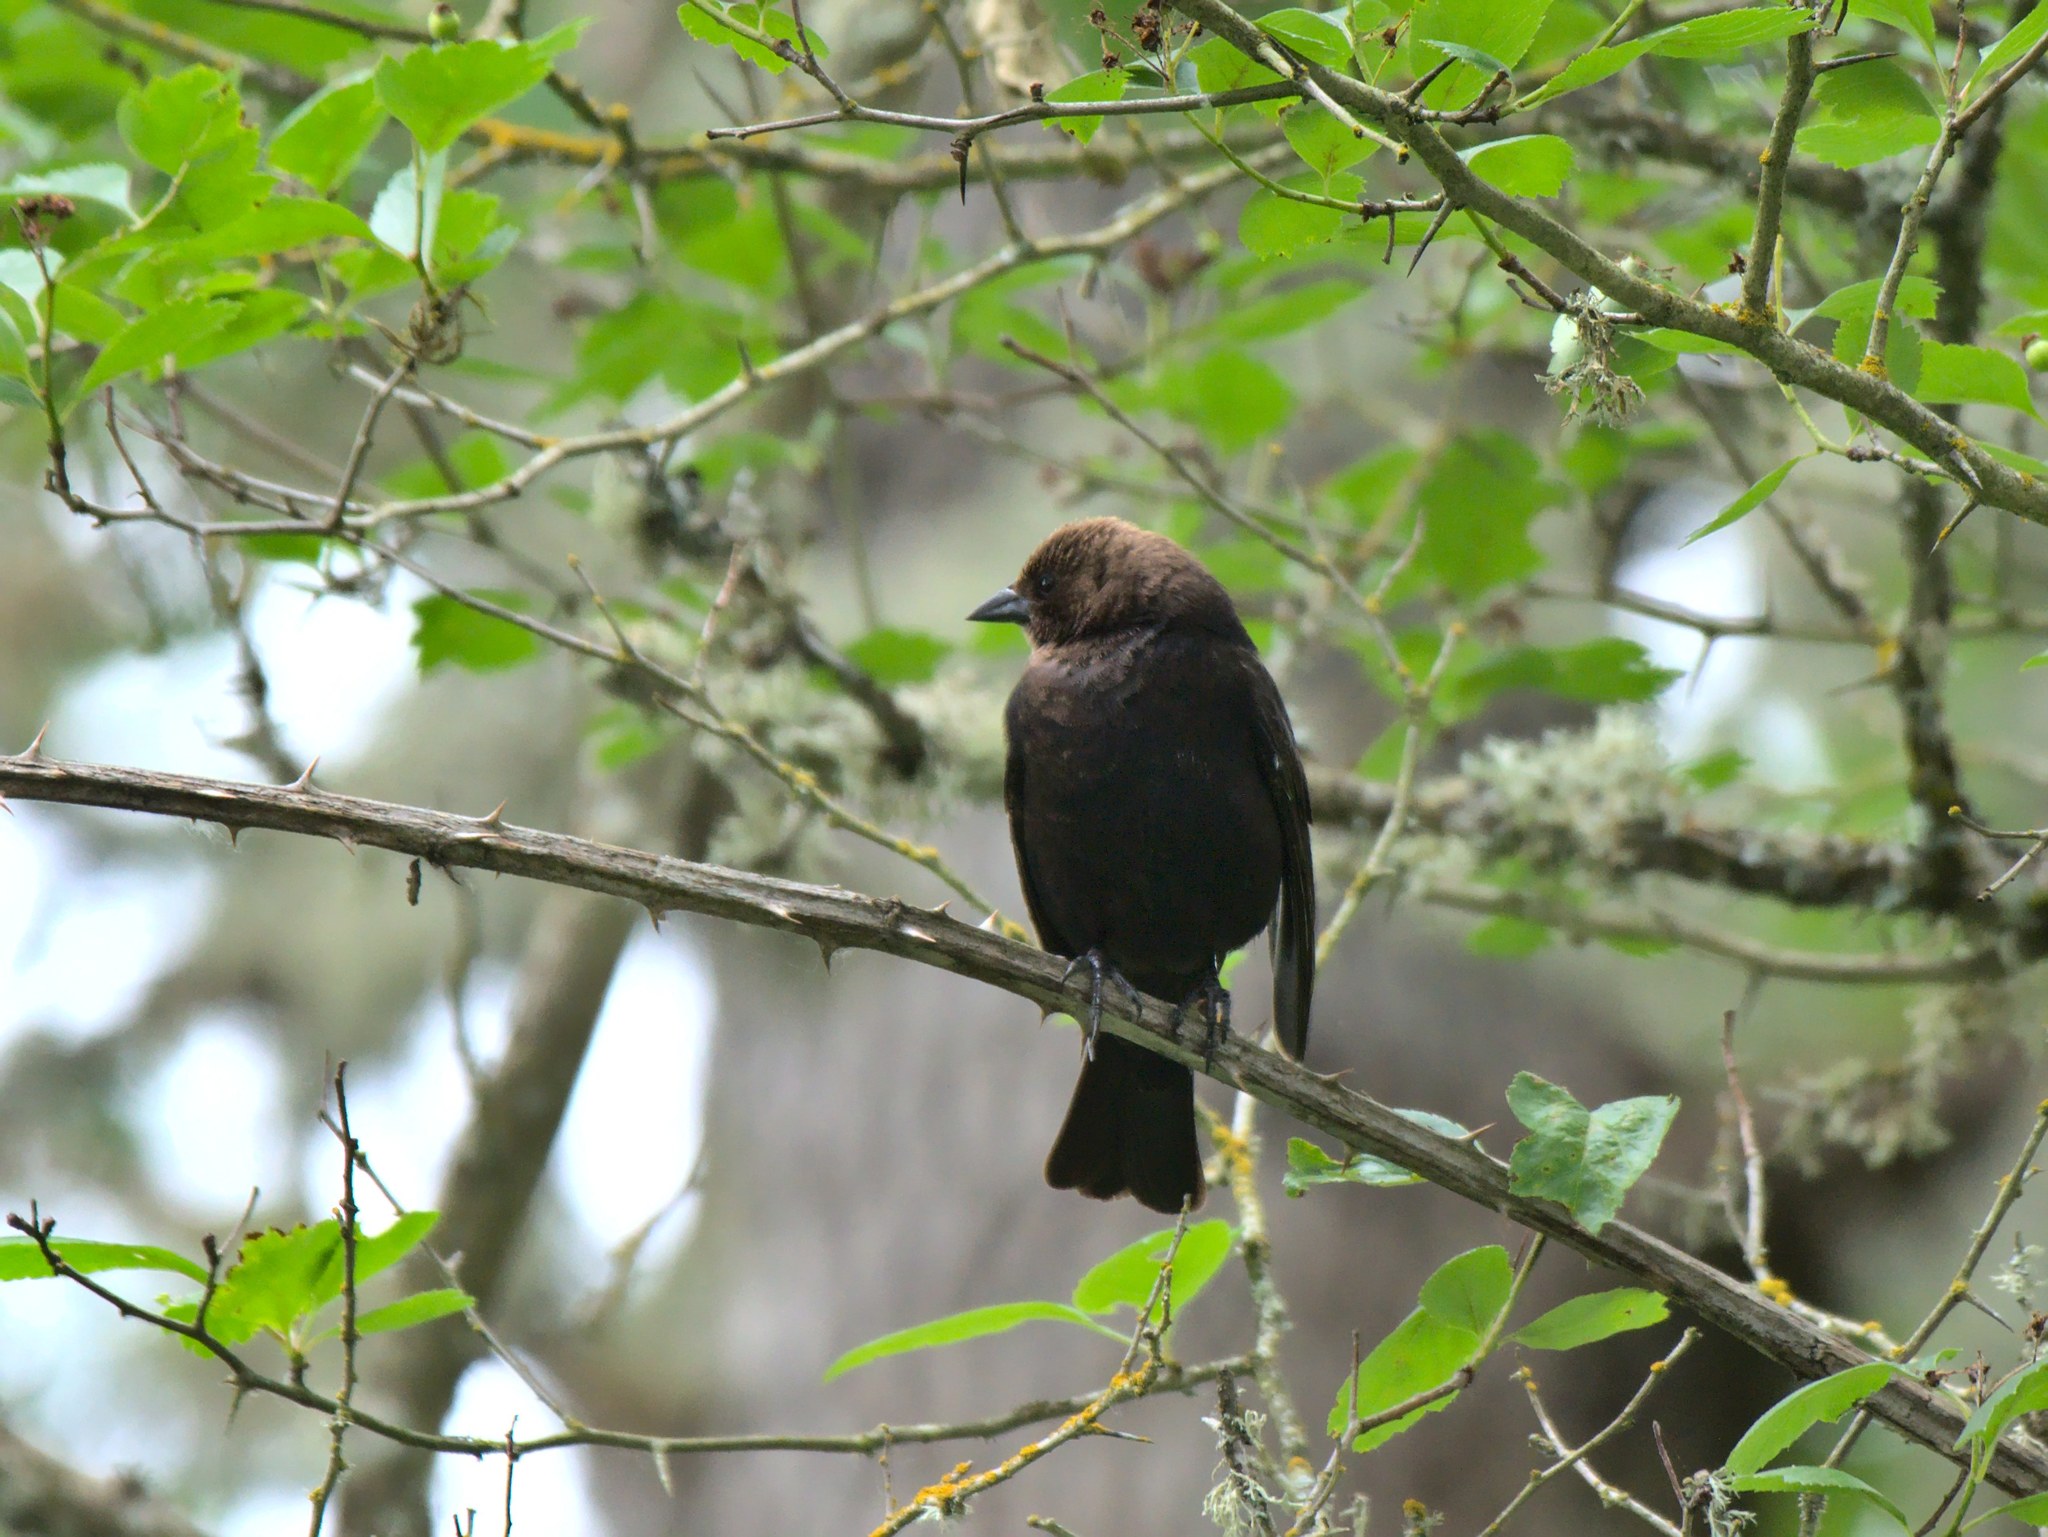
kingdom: Animalia
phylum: Chordata
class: Aves
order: Passeriformes
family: Icteridae
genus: Molothrus
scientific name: Molothrus ater
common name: Brown-headed cowbird
